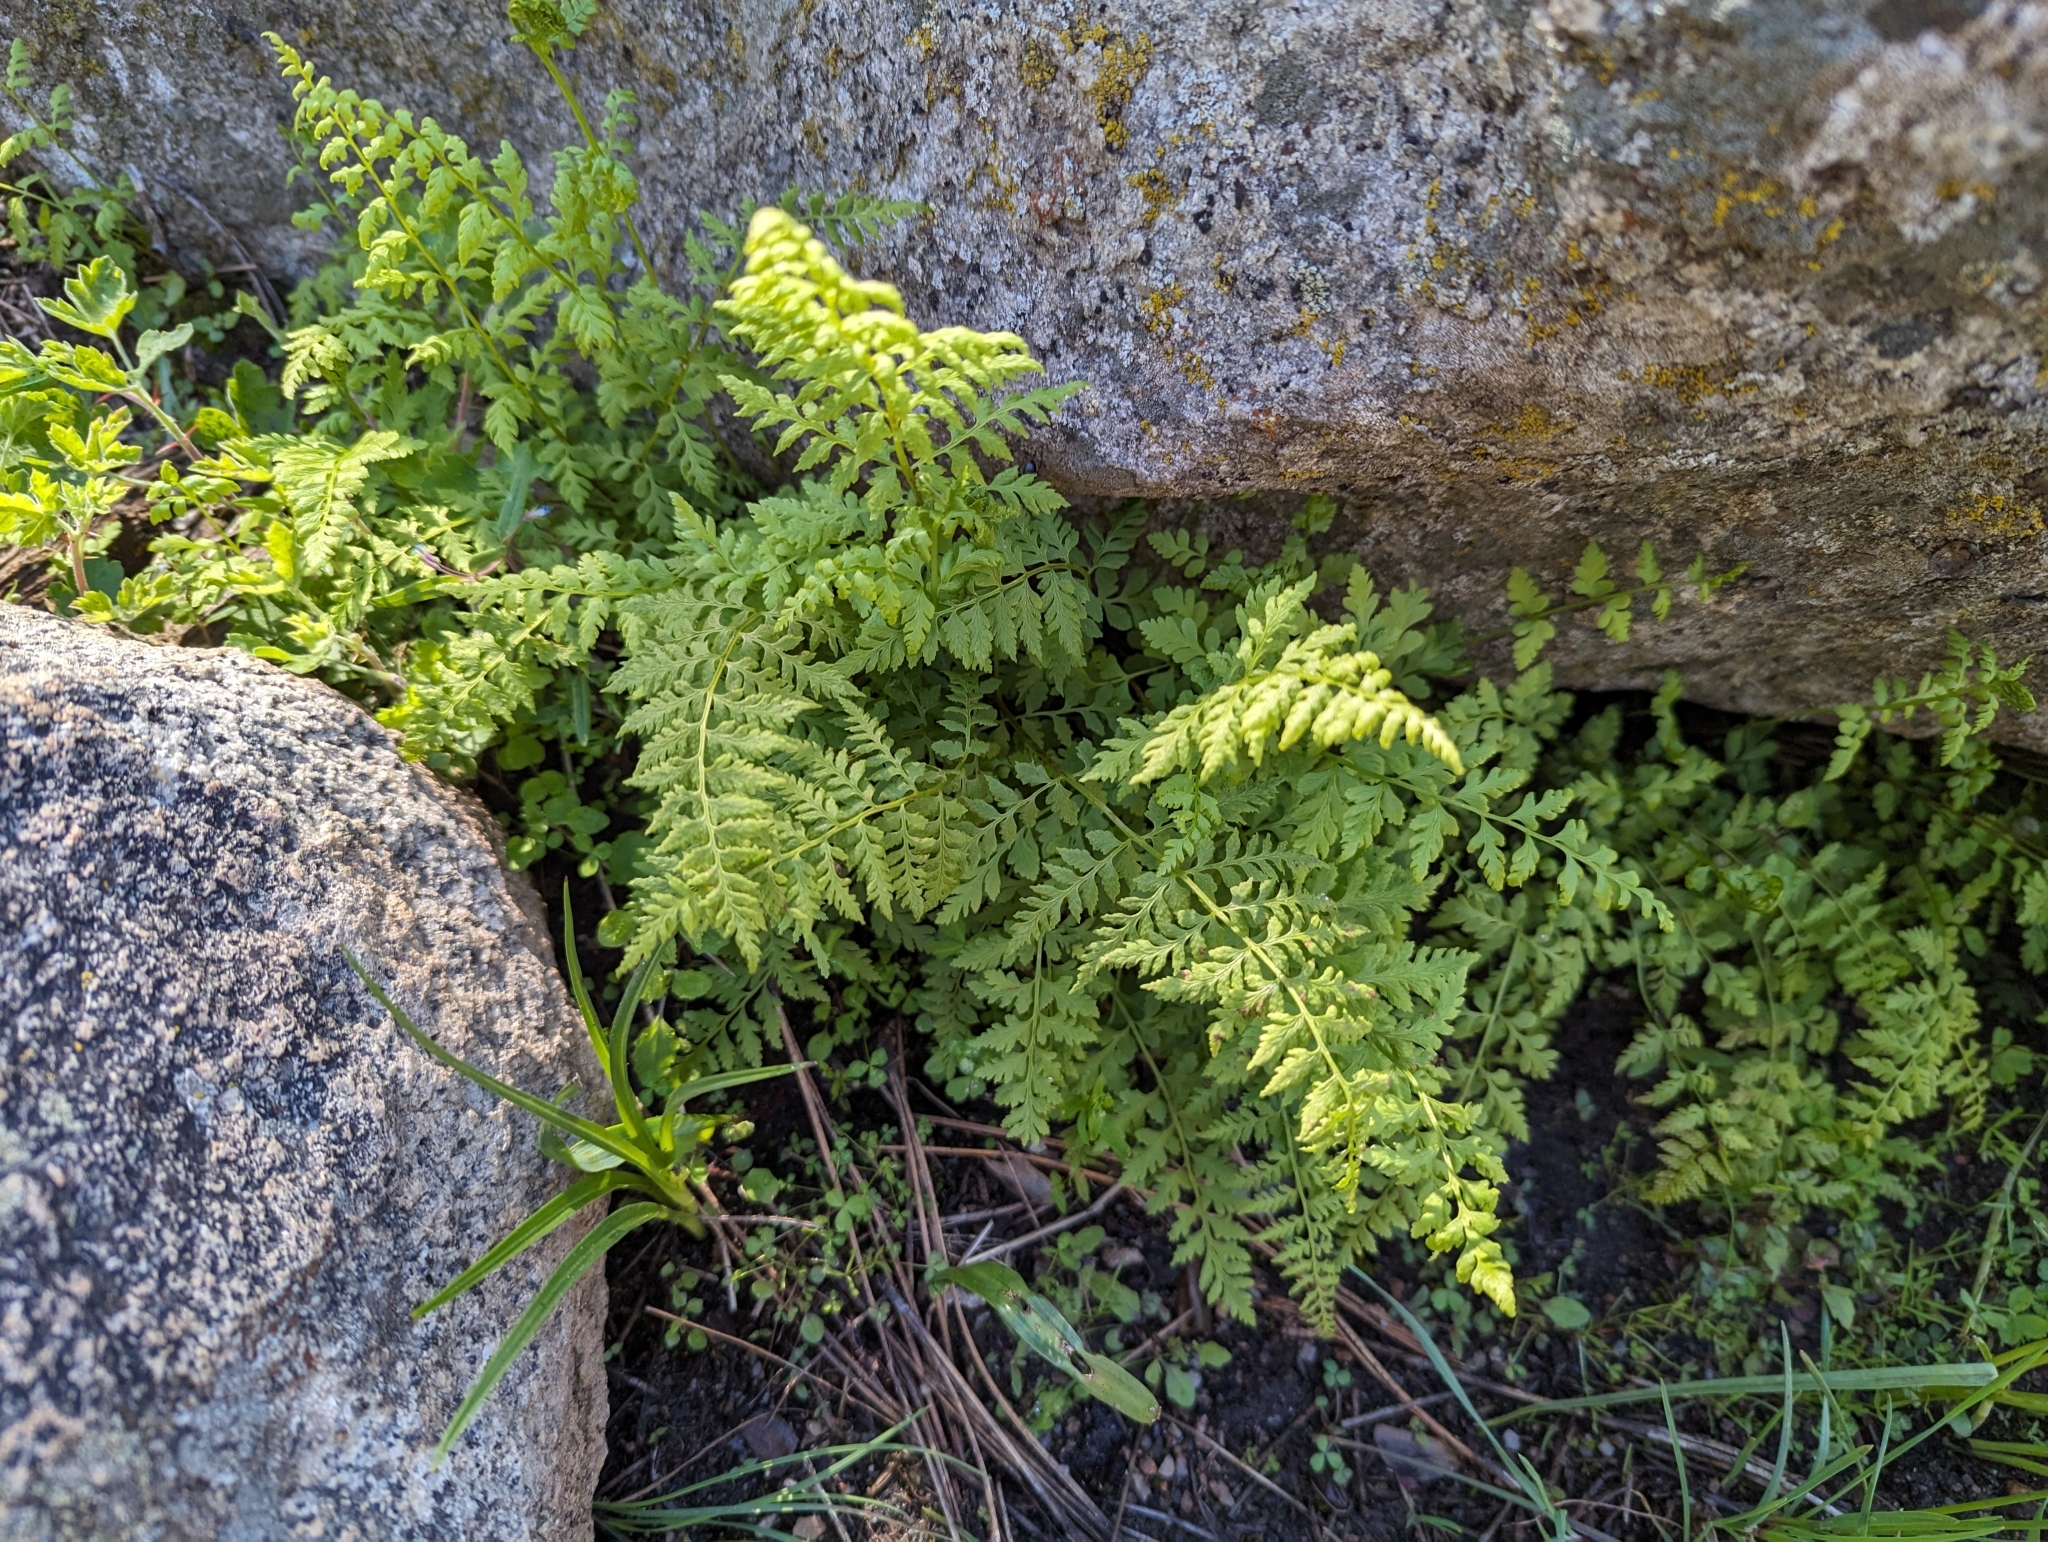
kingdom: Plantae
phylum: Tracheophyta
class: Polypodiopsida
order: Polypodiales
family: Cystopteridaceae
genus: Cystopteris
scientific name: Cystopteris fragilis
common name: Brittle bladder fern
